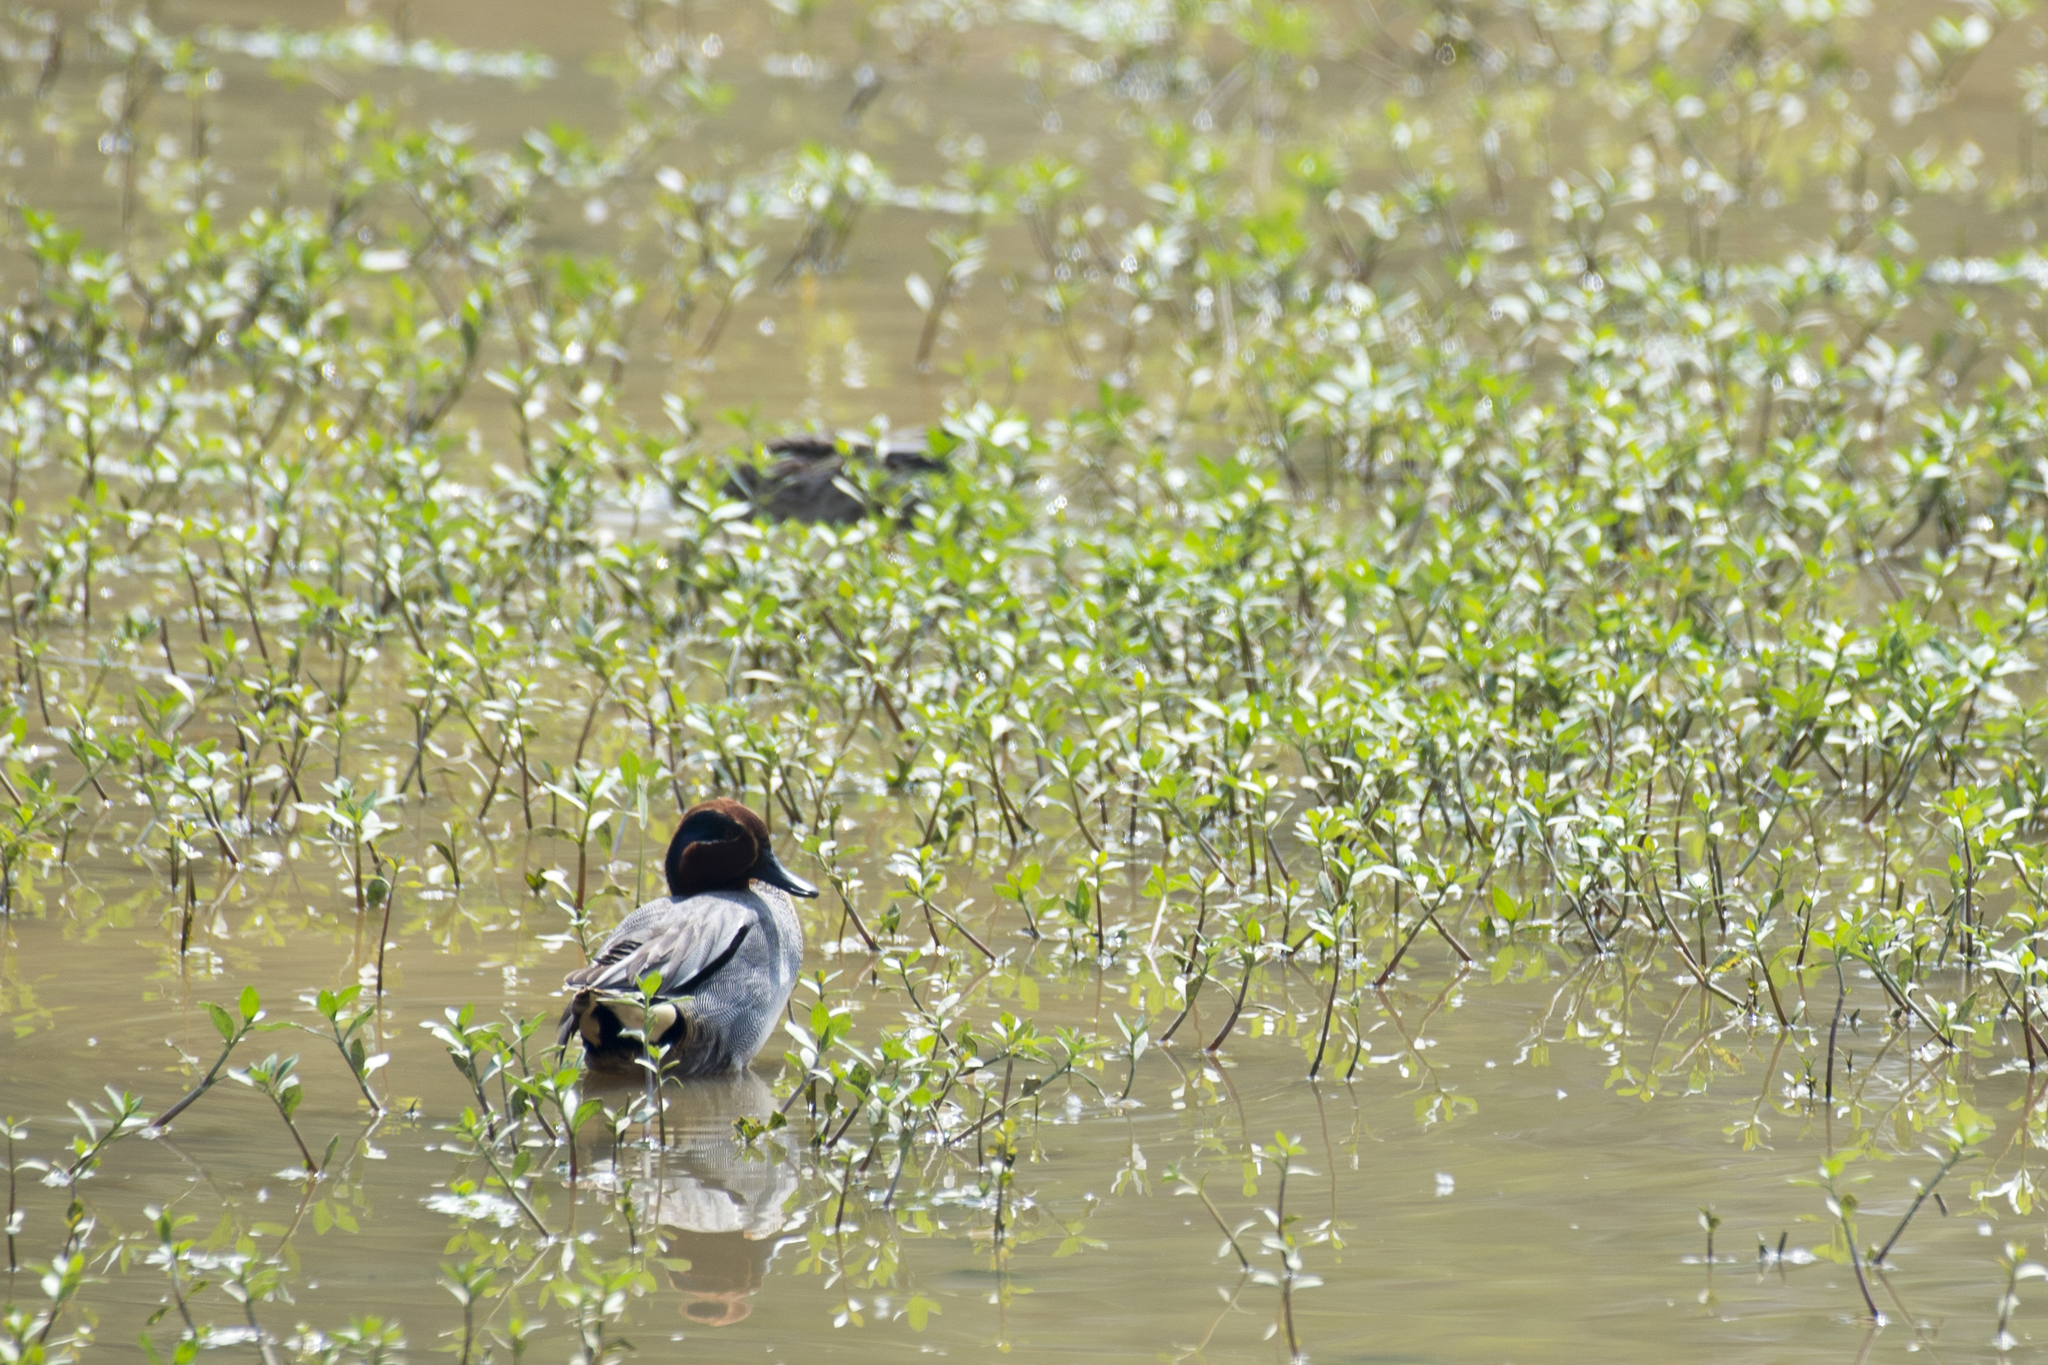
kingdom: Animalia
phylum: Chordata
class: Aves
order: Anseriformes
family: Anatidae
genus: Anas
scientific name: Anas crecca
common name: Eurasian teal
